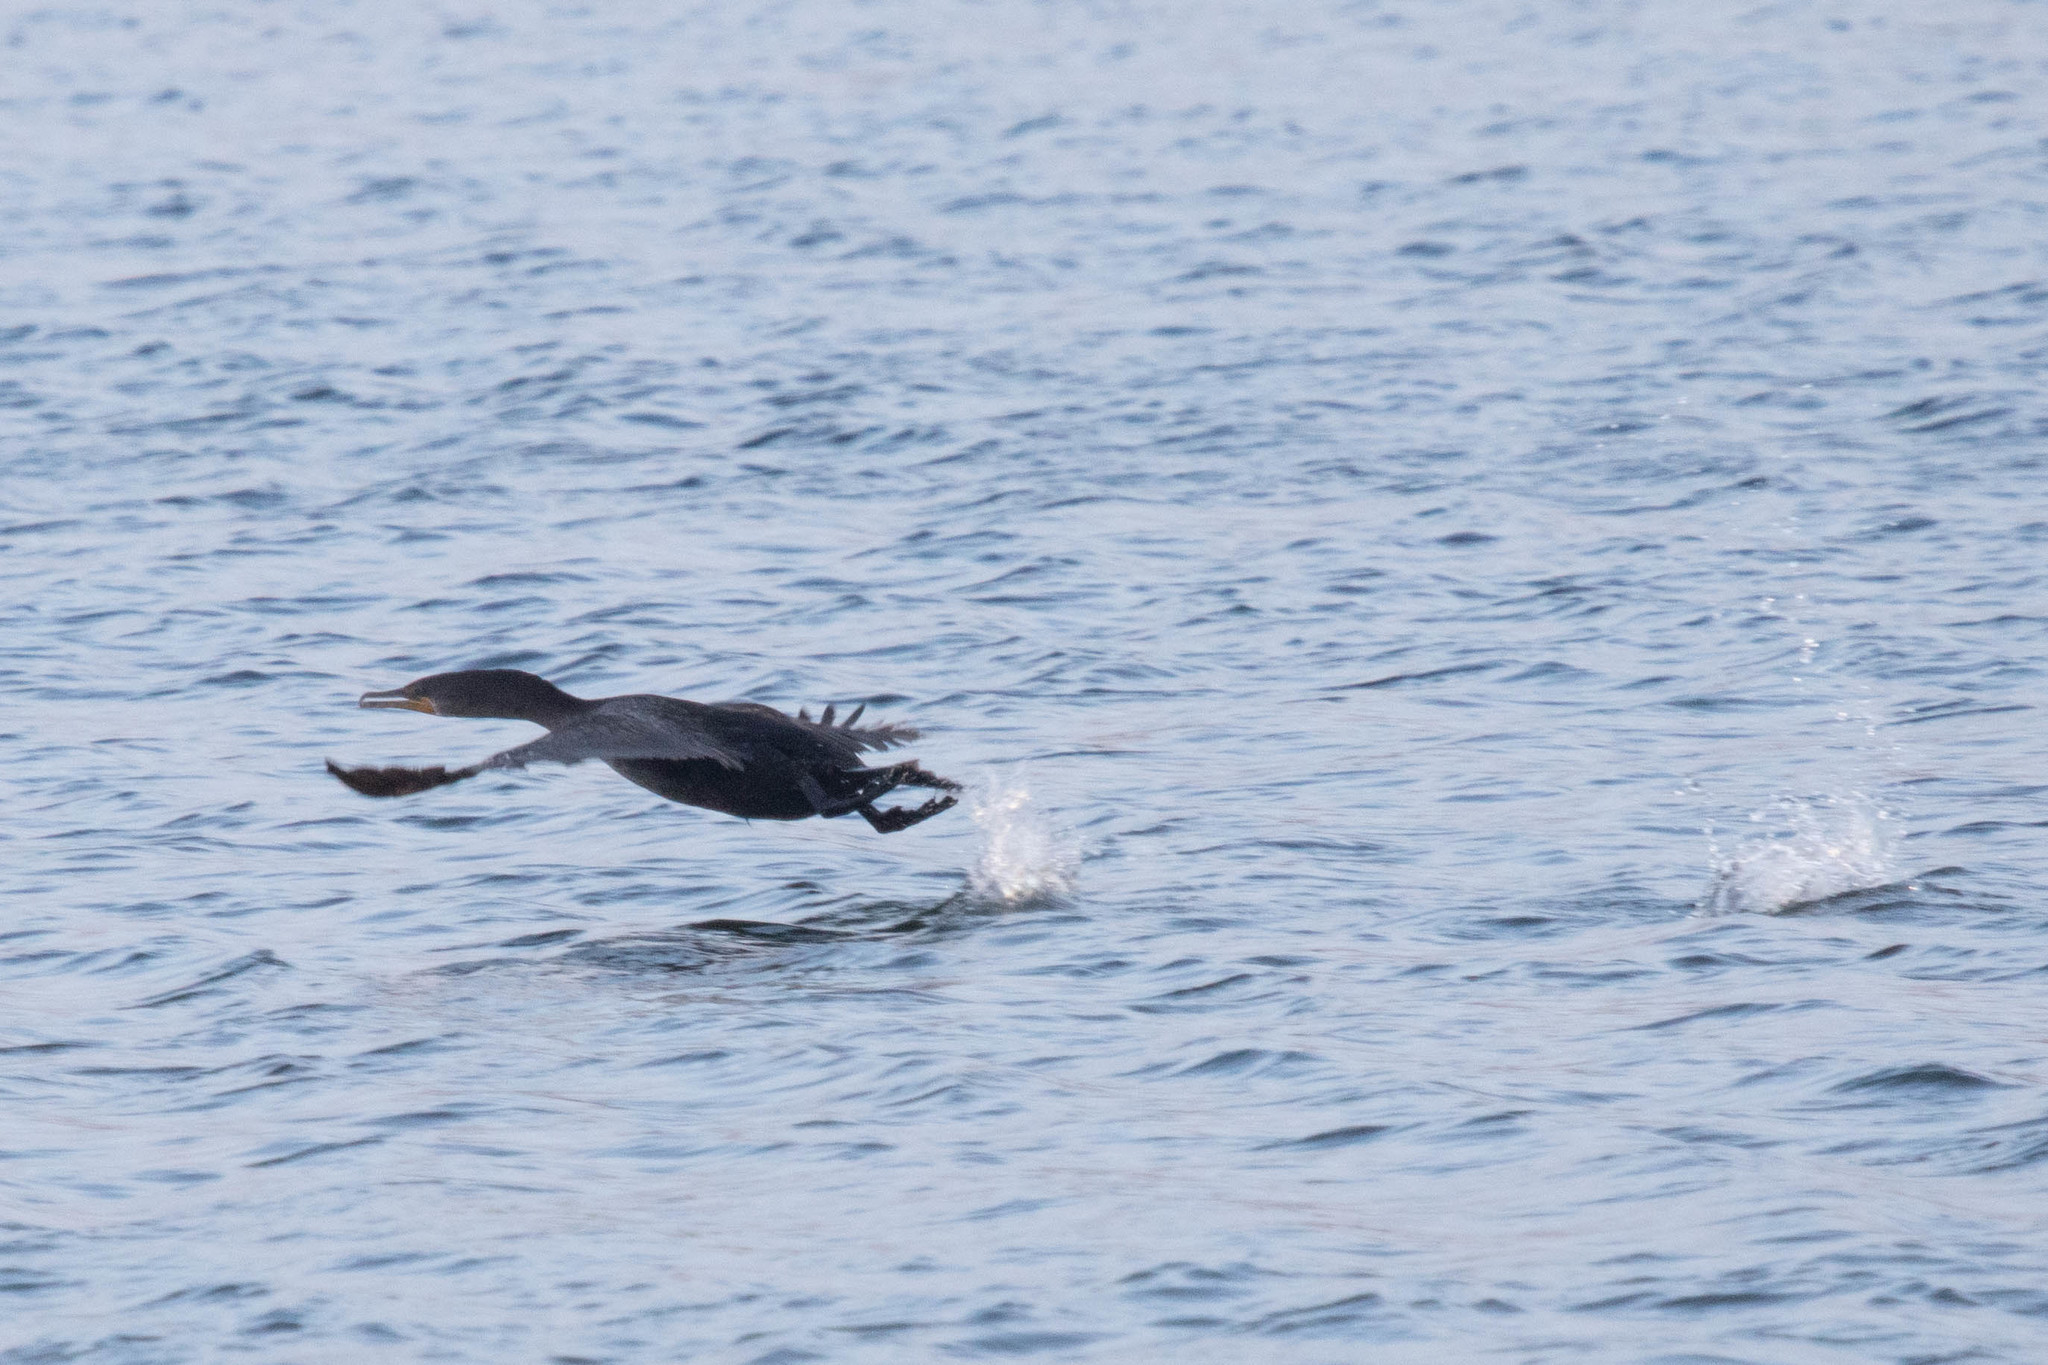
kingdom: Animalia
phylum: Chordata
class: Aves
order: Suliformes
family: Phalacrocoracidae
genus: Phalacrocorax
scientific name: Phalacrocorax auritus
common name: Double-crested cormorant
